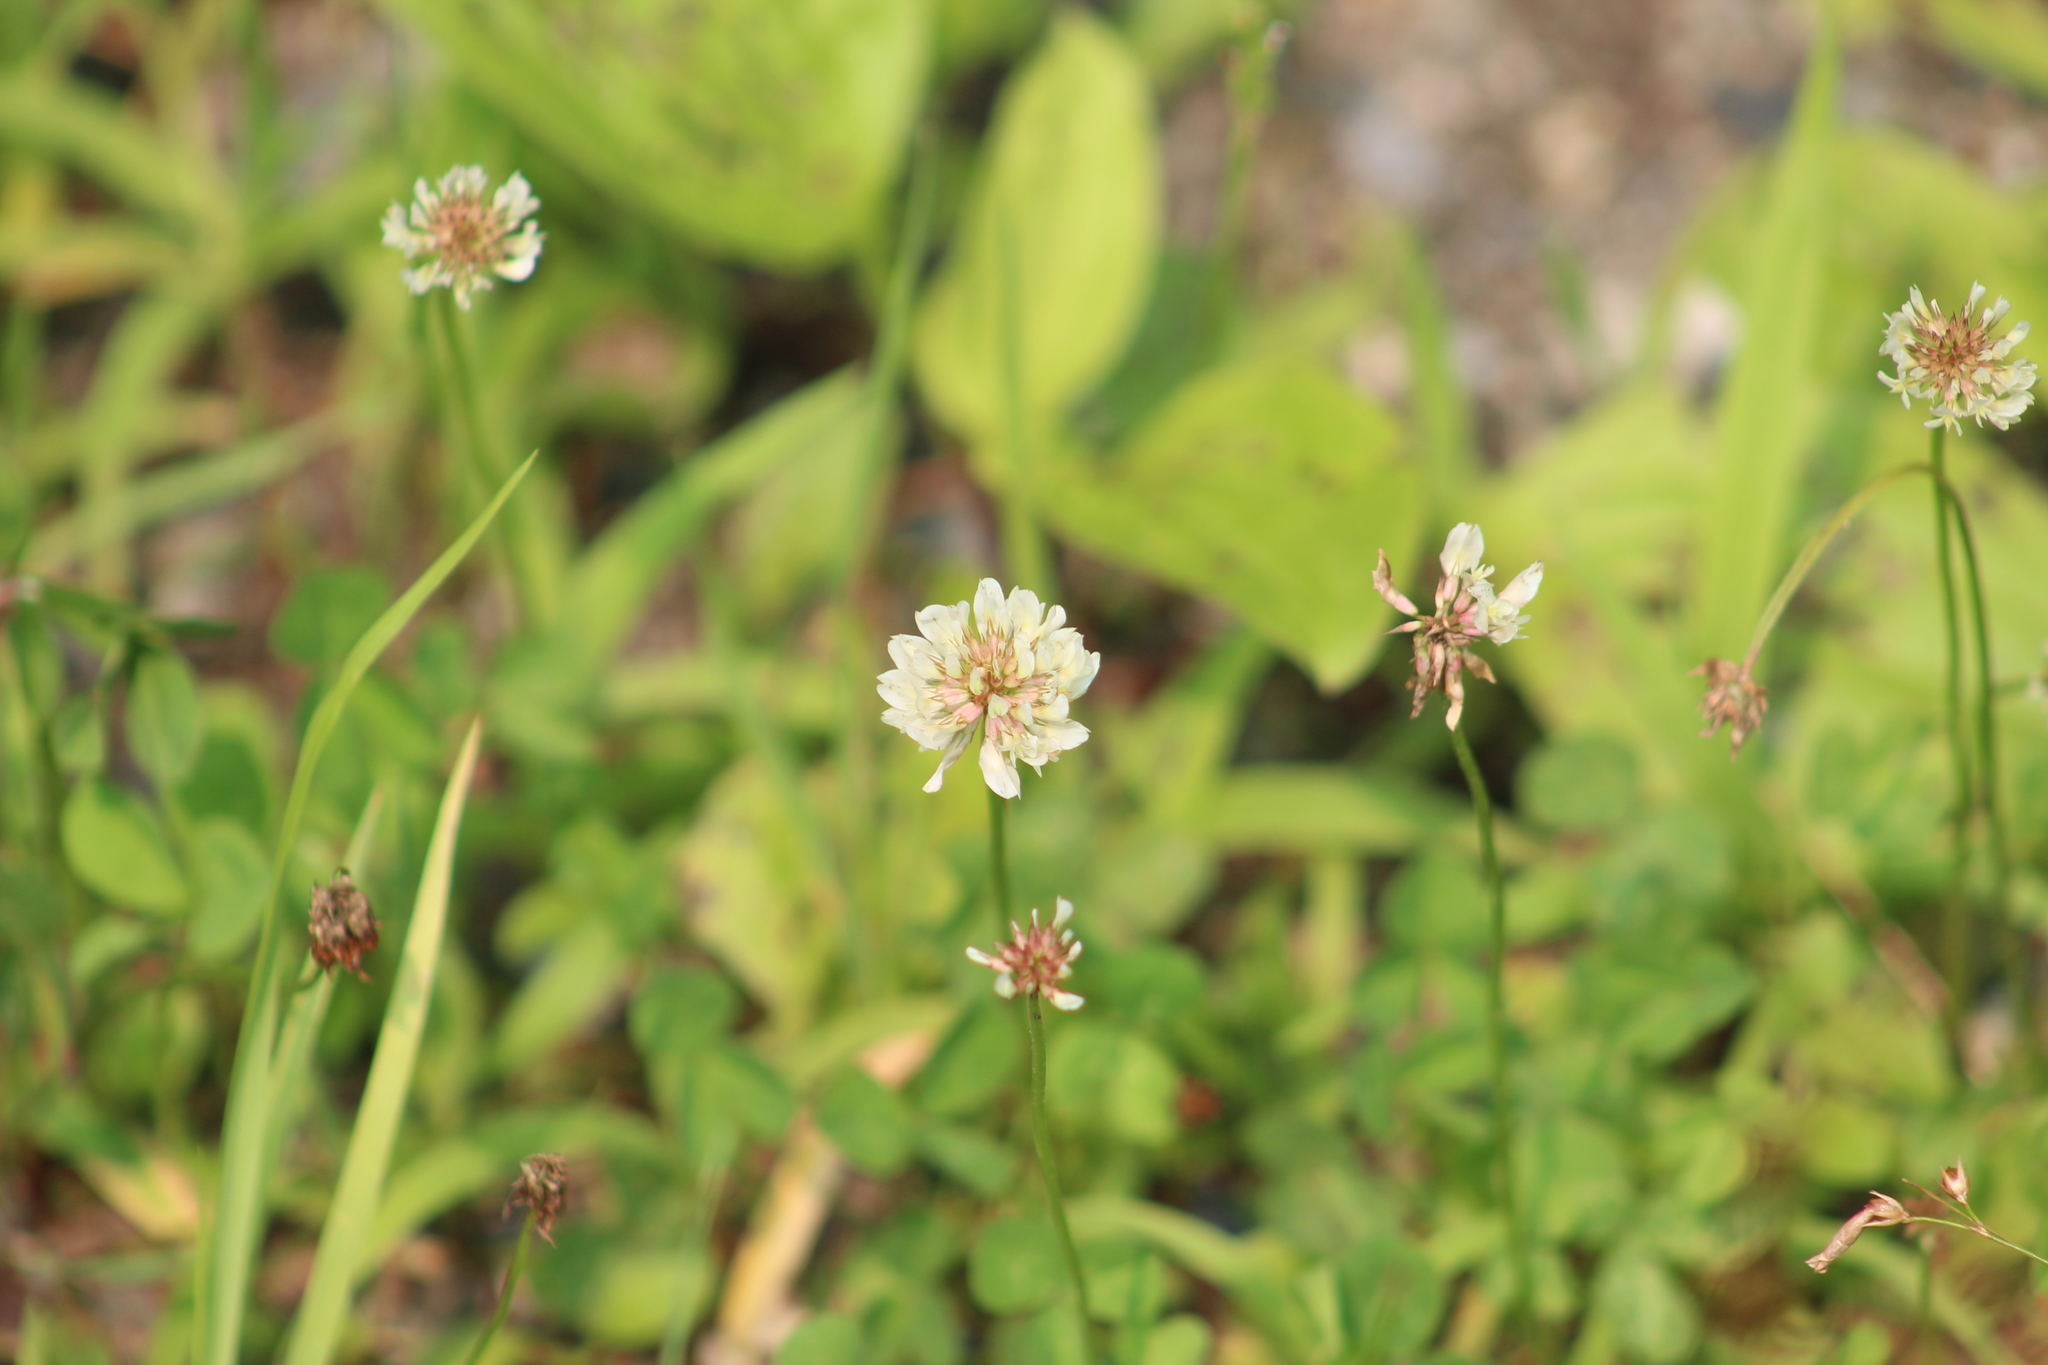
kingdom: Plantae
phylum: Tracheophyta
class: Magnoliopsida
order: Fabales
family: Fabaceae
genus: Trifolium
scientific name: Trifolium repens
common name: White clover
